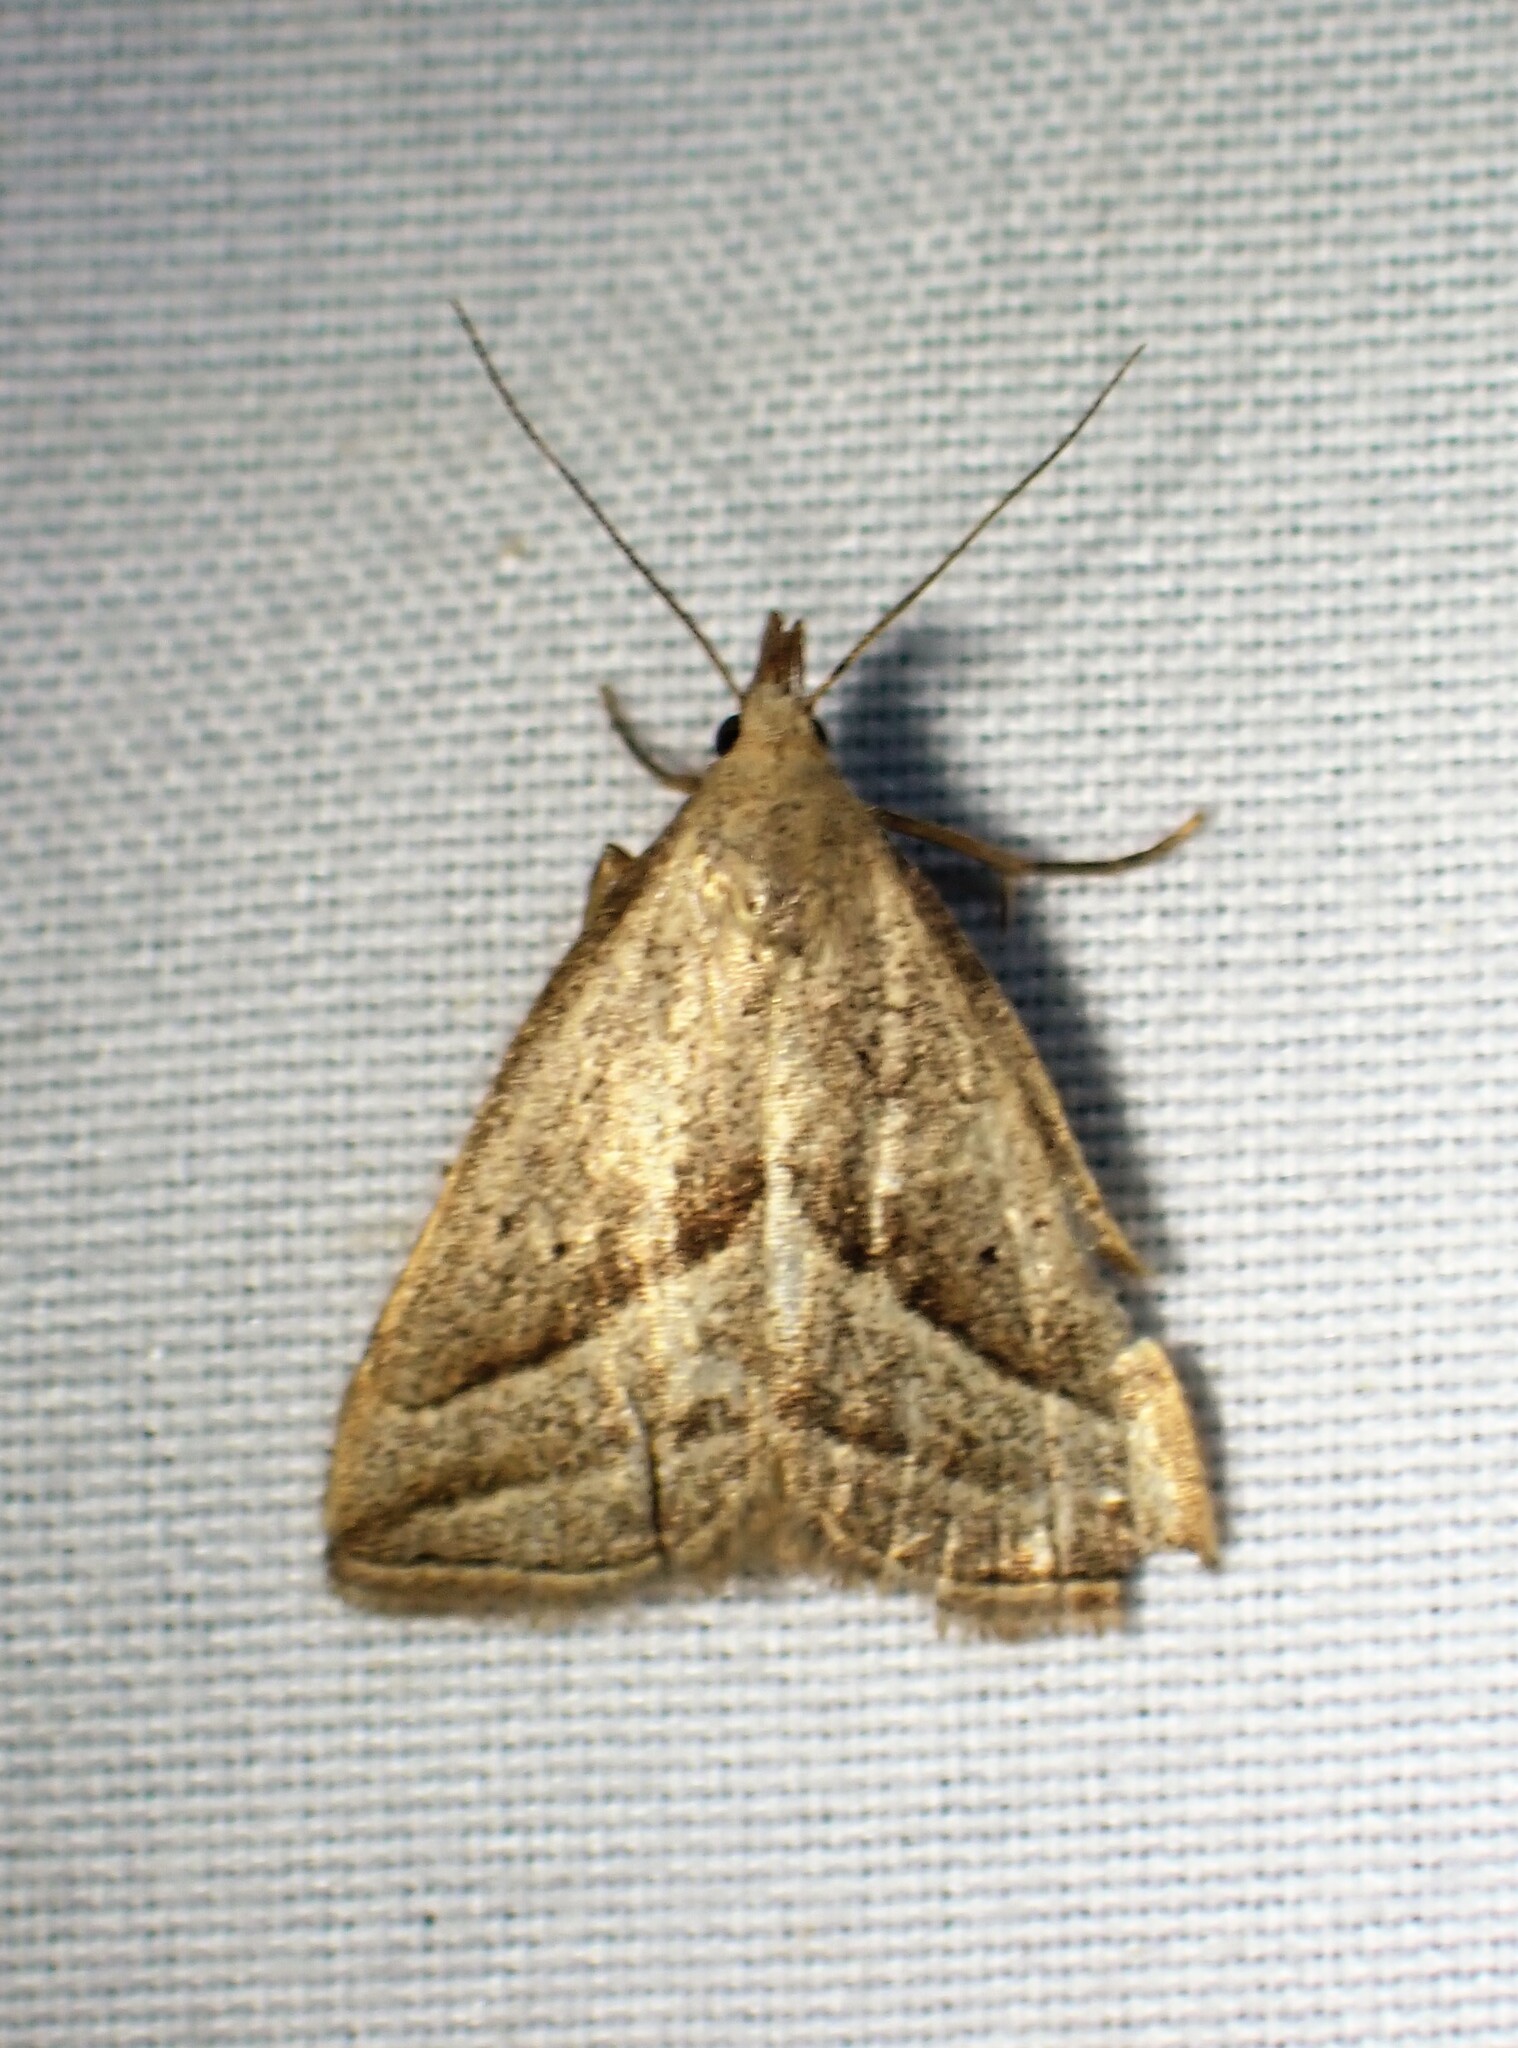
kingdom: Animalia
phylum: Arthropoda
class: Insecta
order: Lepidoptera
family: Erebidae
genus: Macrochilo
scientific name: Macrochilo absorptalis
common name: Slant-lined owlet
